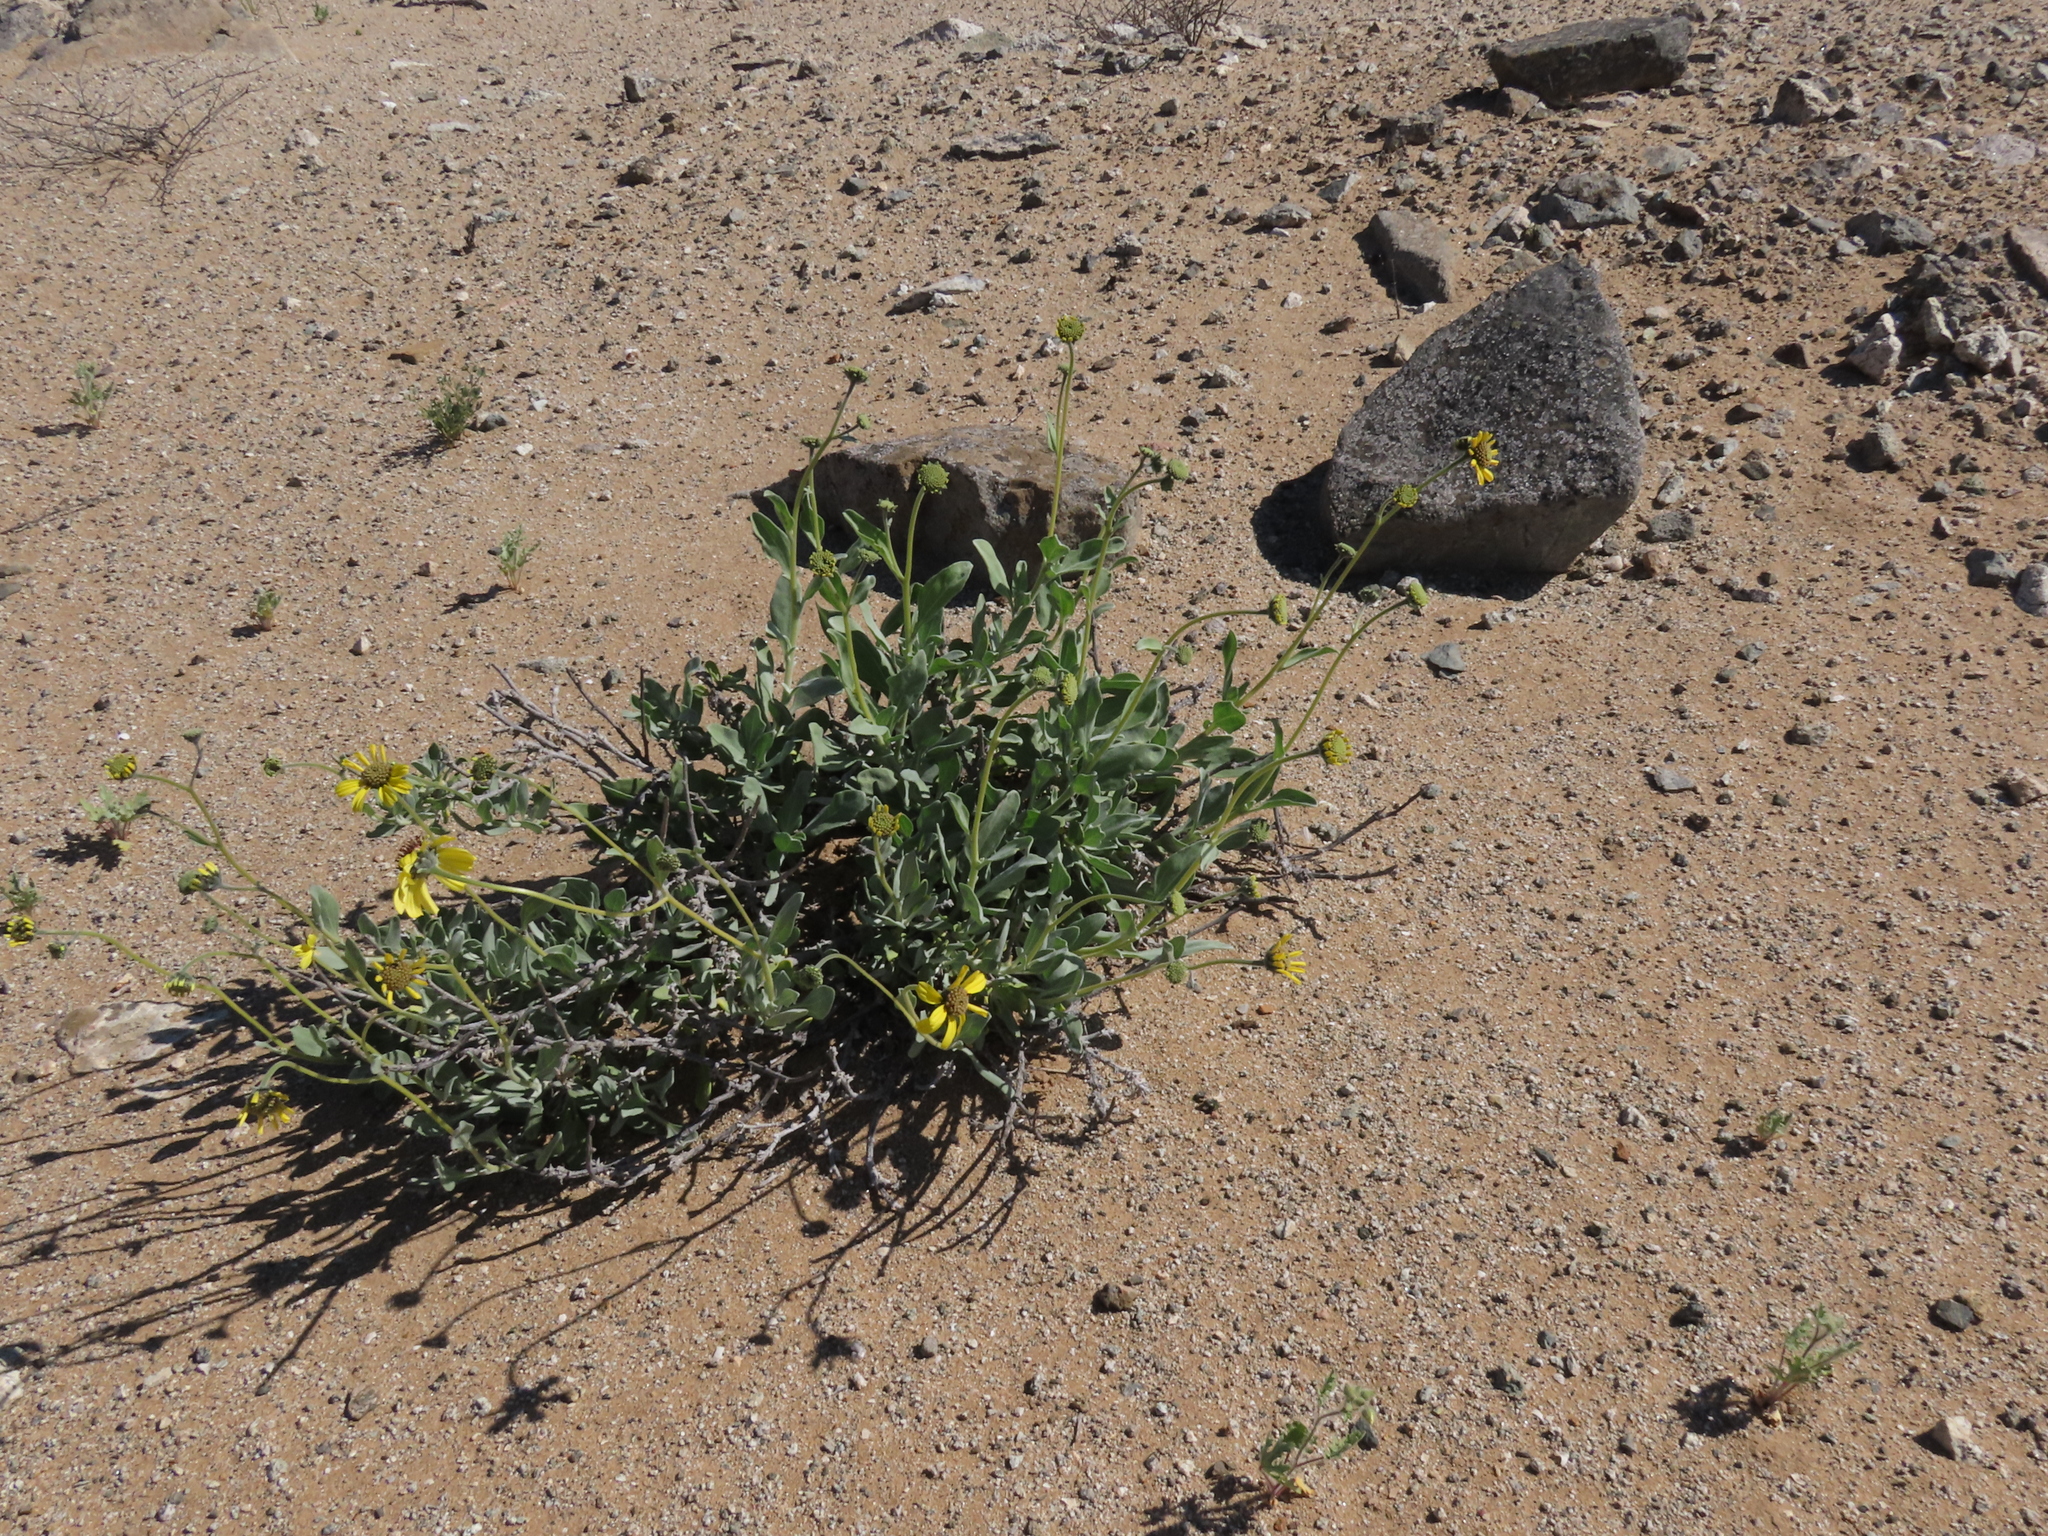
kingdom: Plantae
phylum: Tracheophyta
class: Magnoliopsida
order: Asterales
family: Asteraceae
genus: Encelia
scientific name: Encelia canescens
